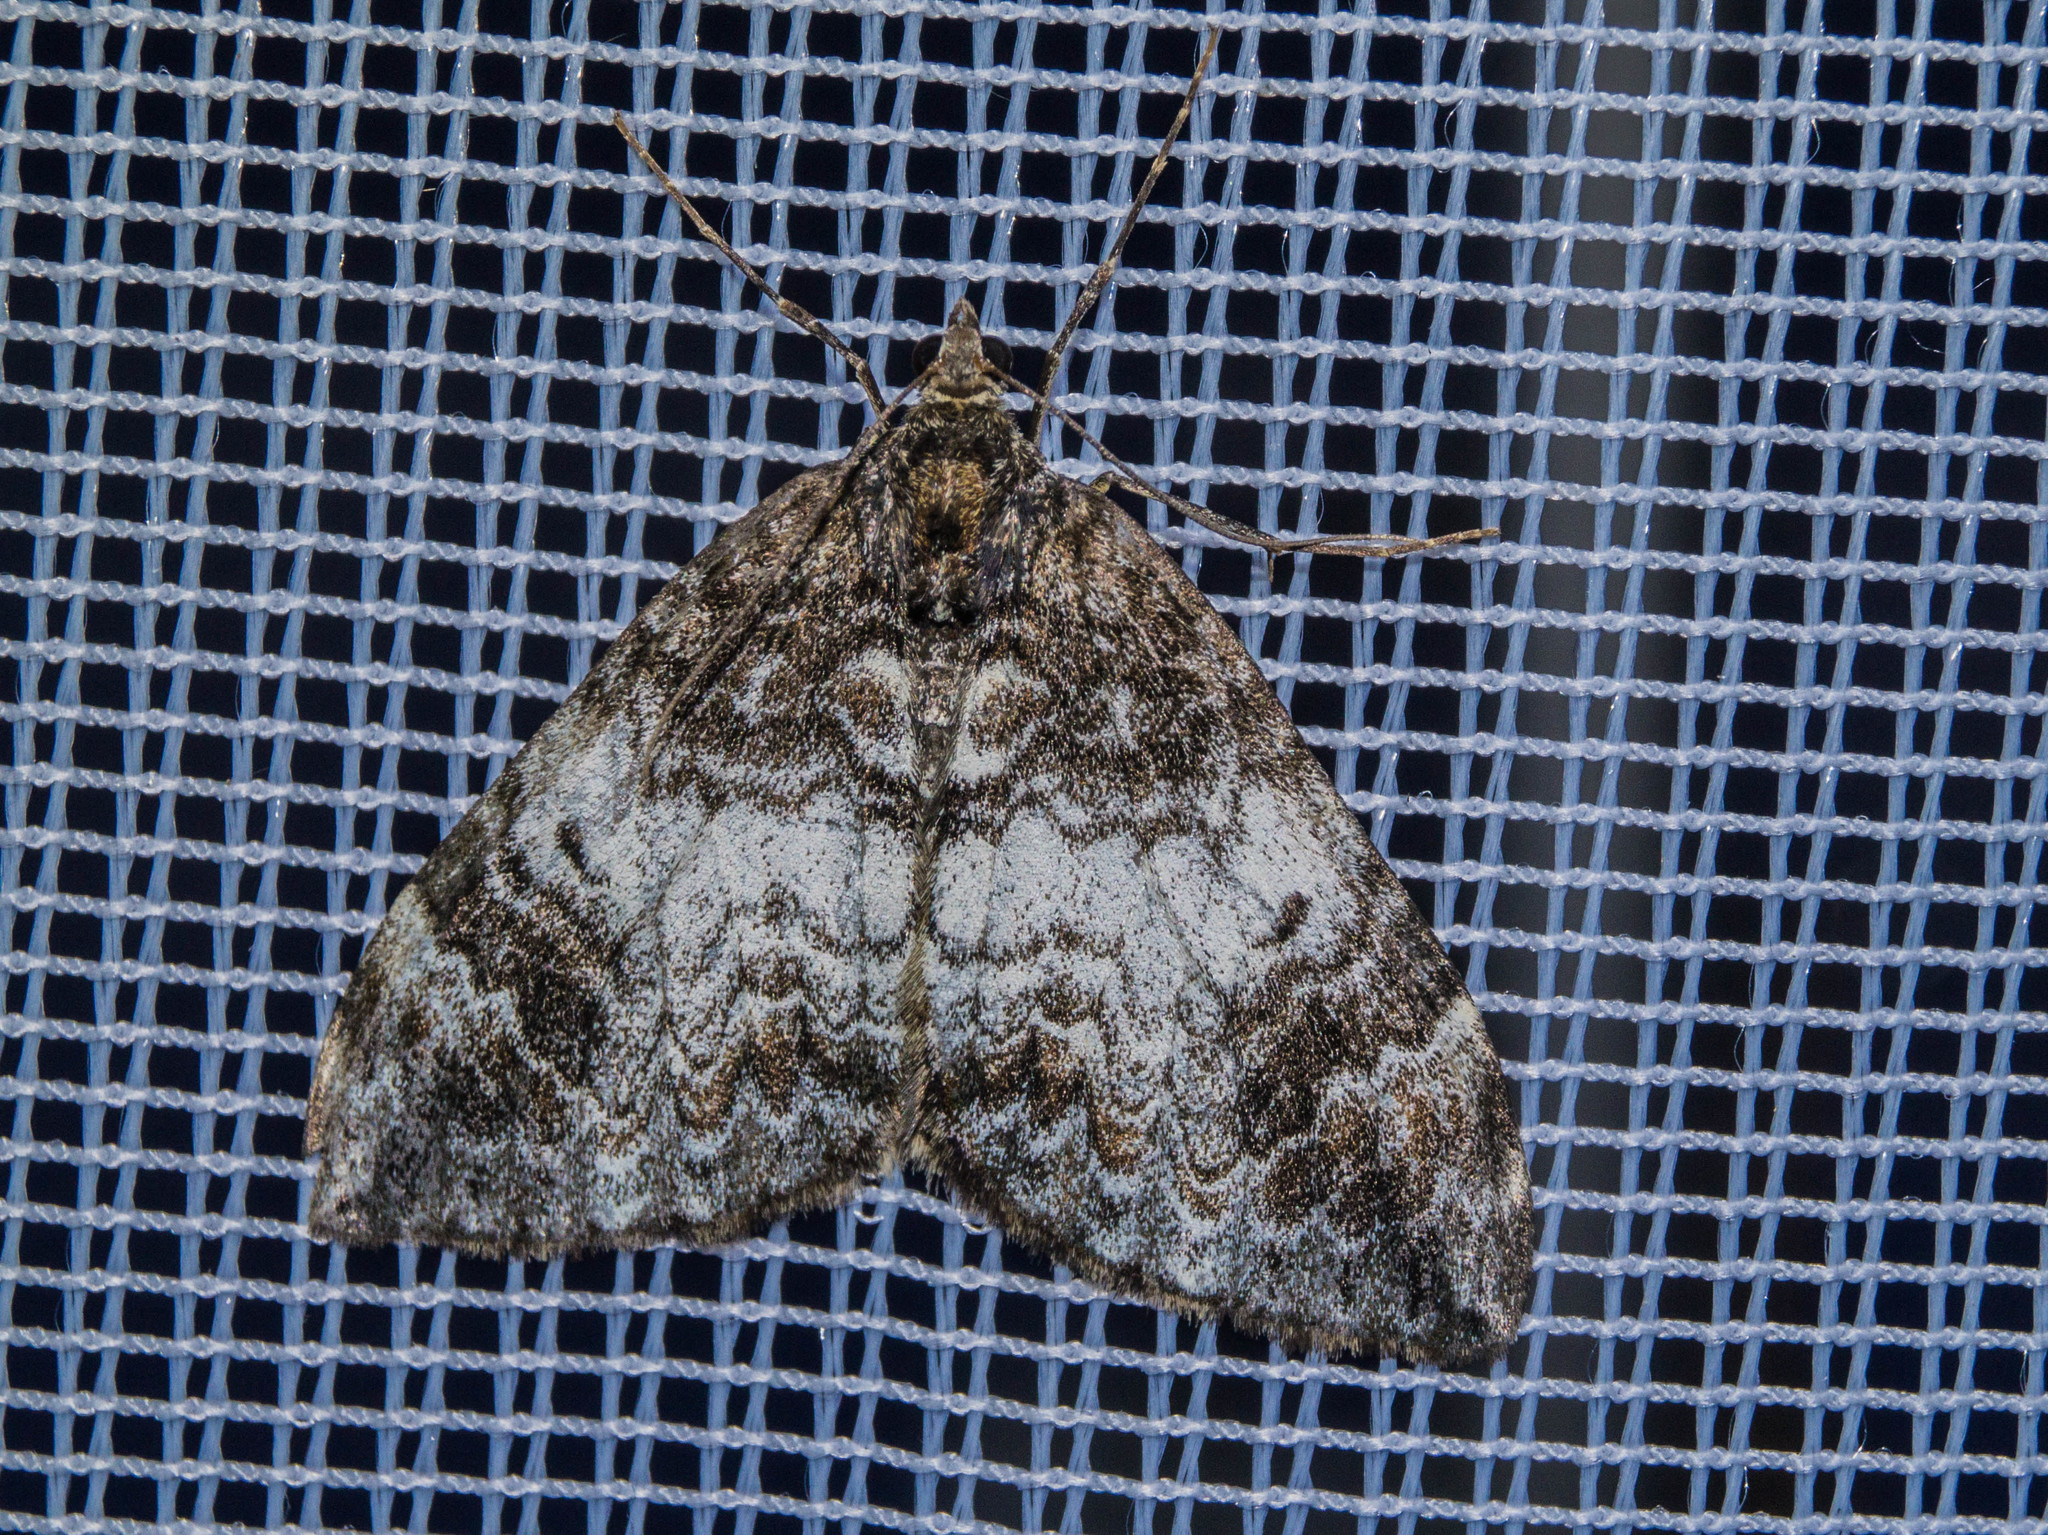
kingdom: Animalia
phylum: Arthropoda
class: Insecta
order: Lepidoptera
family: Geometridae
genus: Dysstroma
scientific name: Dysstroma truncata
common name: Common marbled carpet
